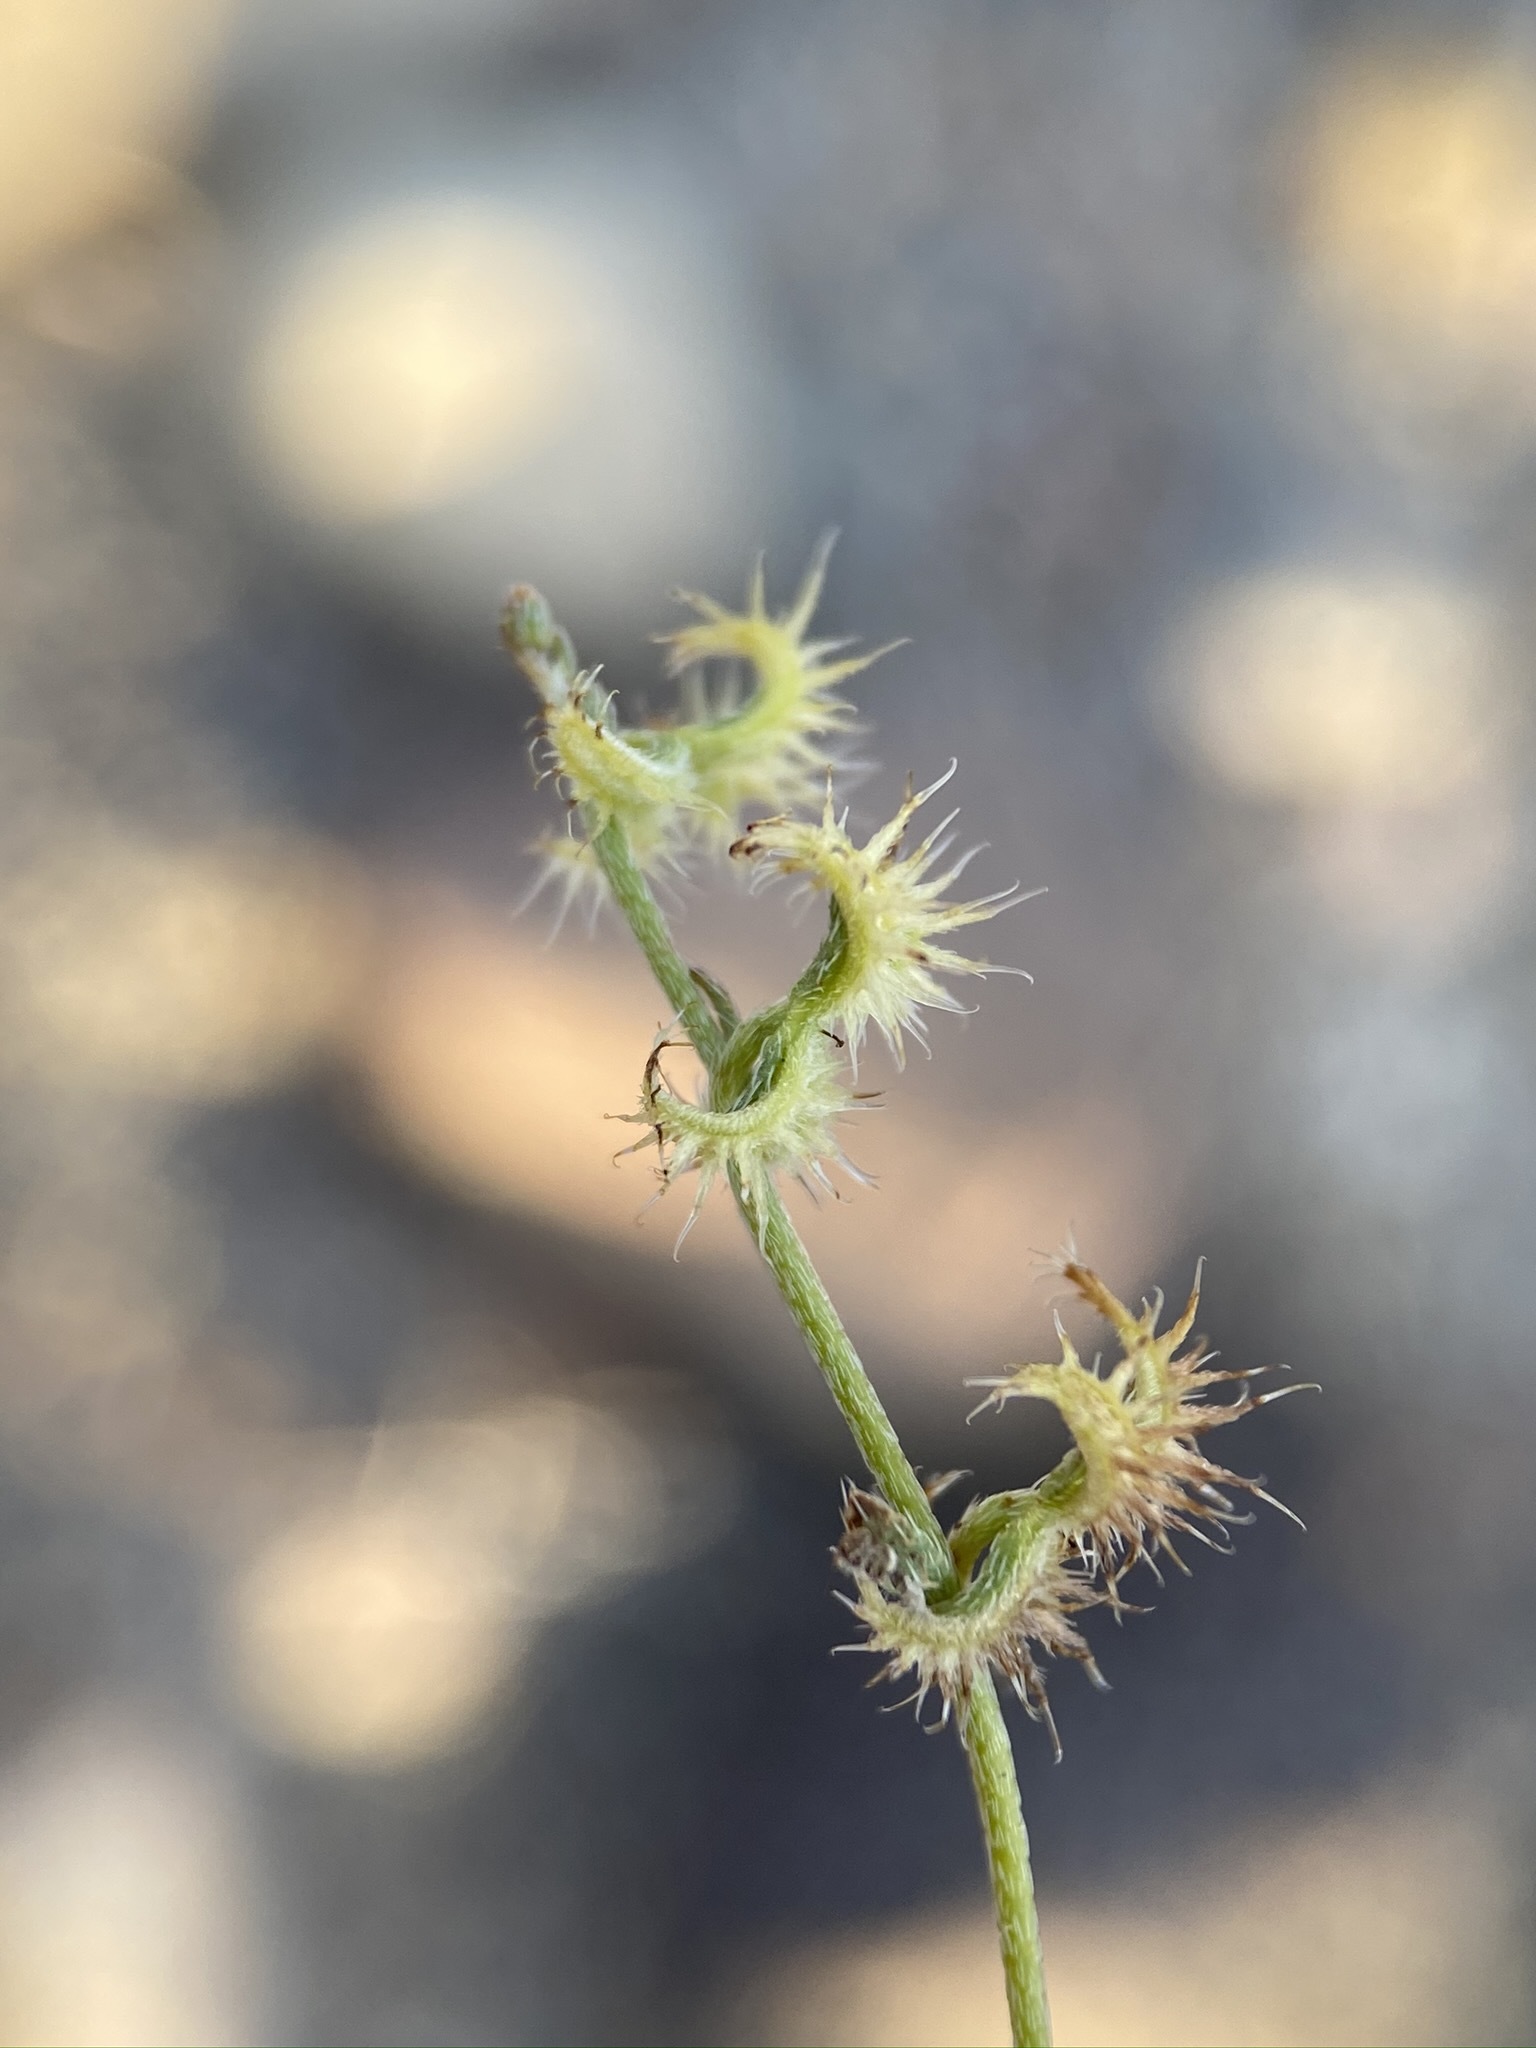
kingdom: Plantae
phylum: Tracheophyta
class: Magnoliopsida
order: Boraginales
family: Boraginaceae
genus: Pectocarya
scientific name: Pectocarya recurvata
